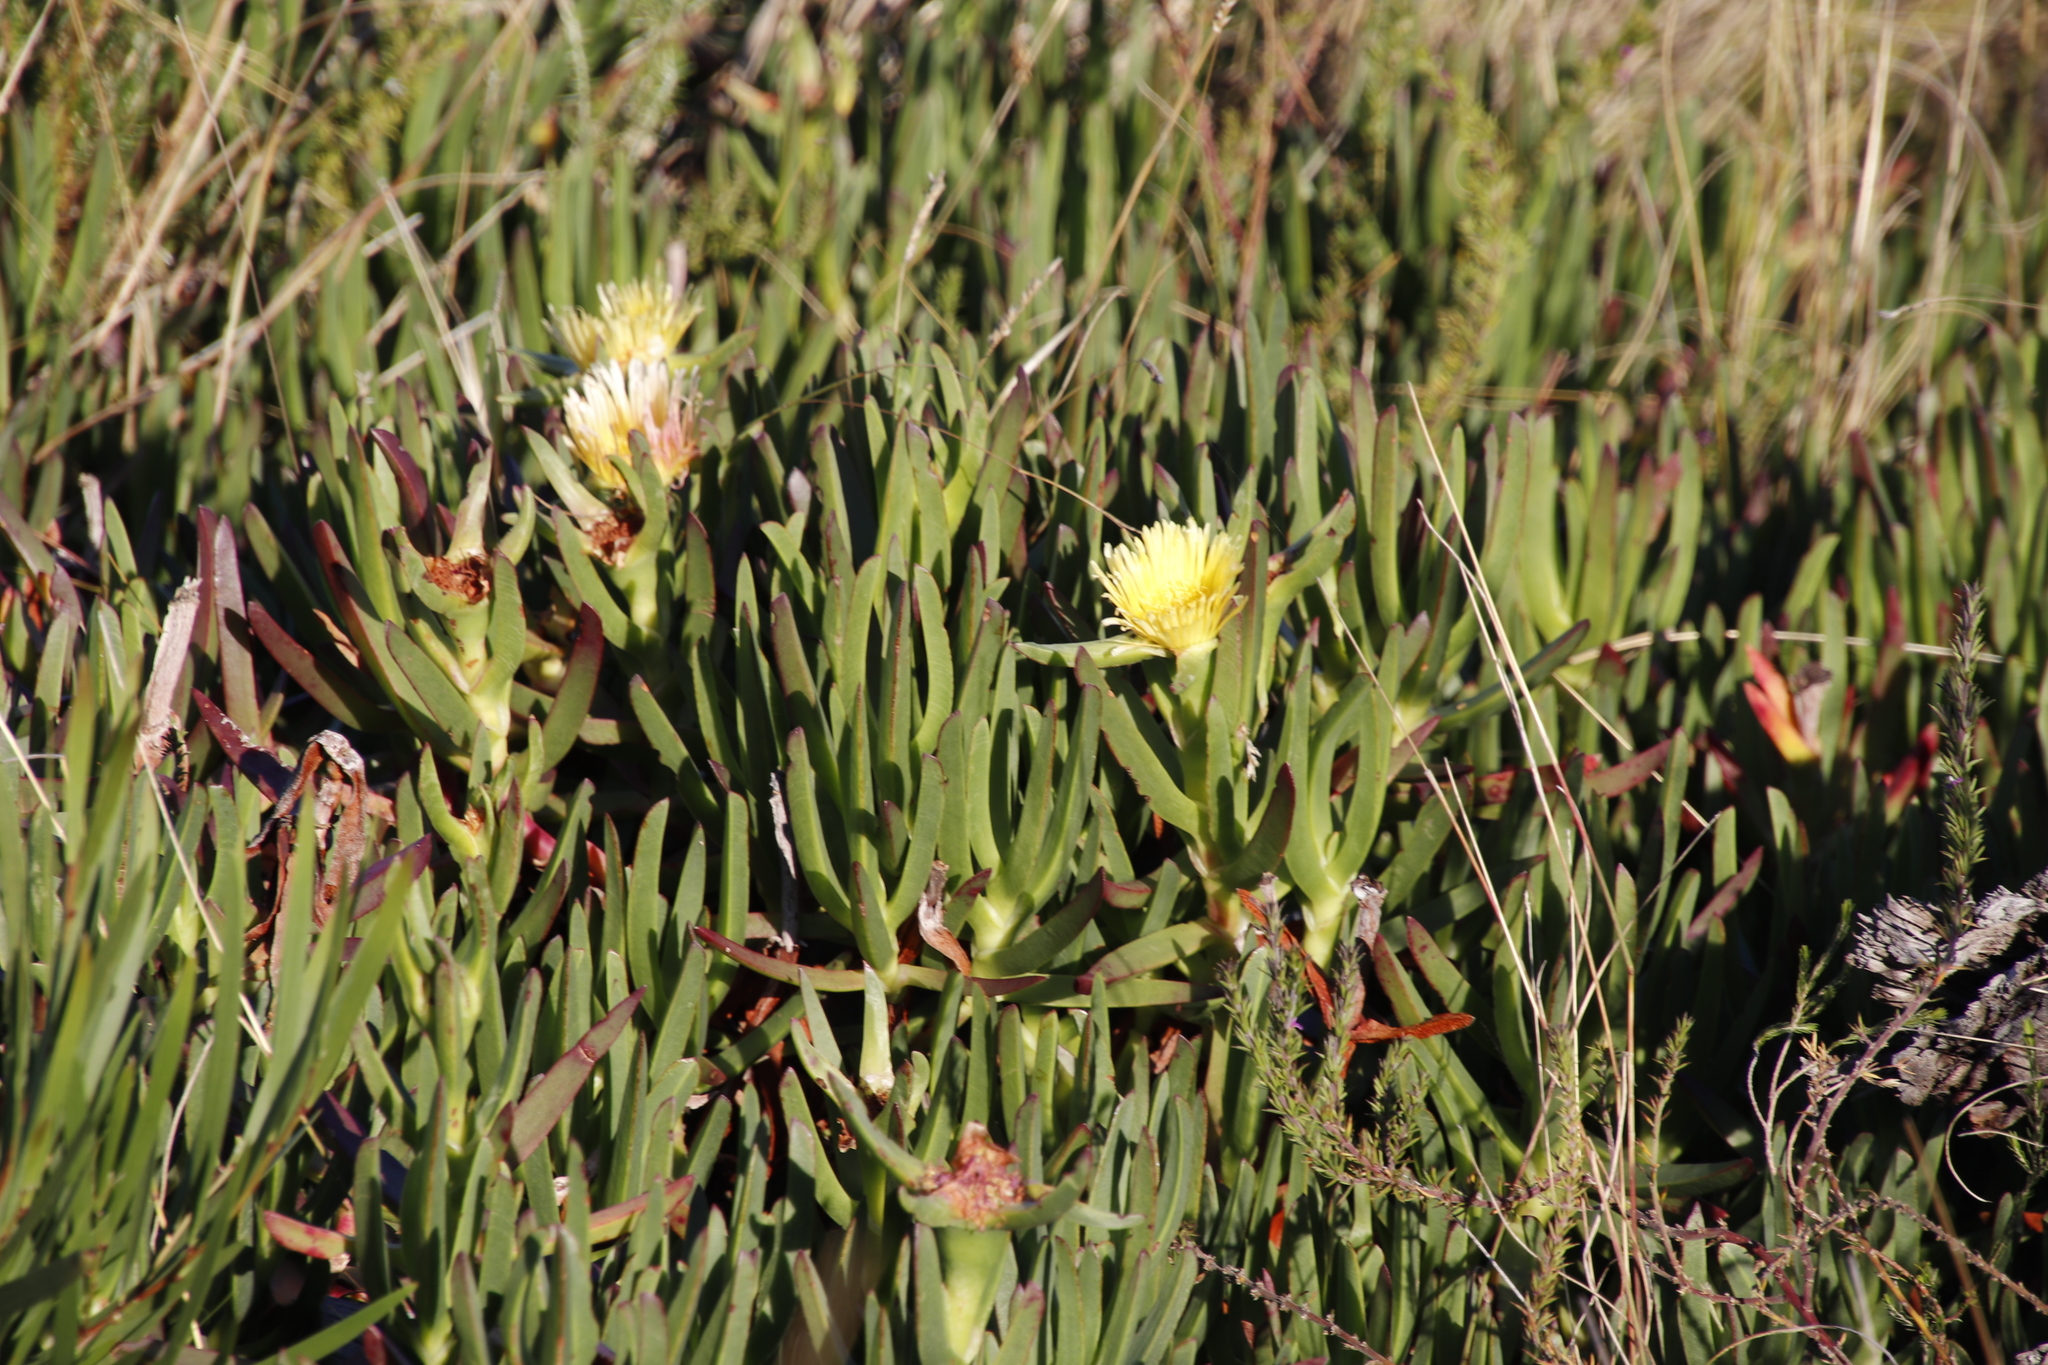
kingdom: Plantae
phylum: Tracheophyta
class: Magnoliopsida
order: Caryophyllales
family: Aizoaceae
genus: Carpobrotus
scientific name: Carpobrotus edulis
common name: Hottentot-fig
